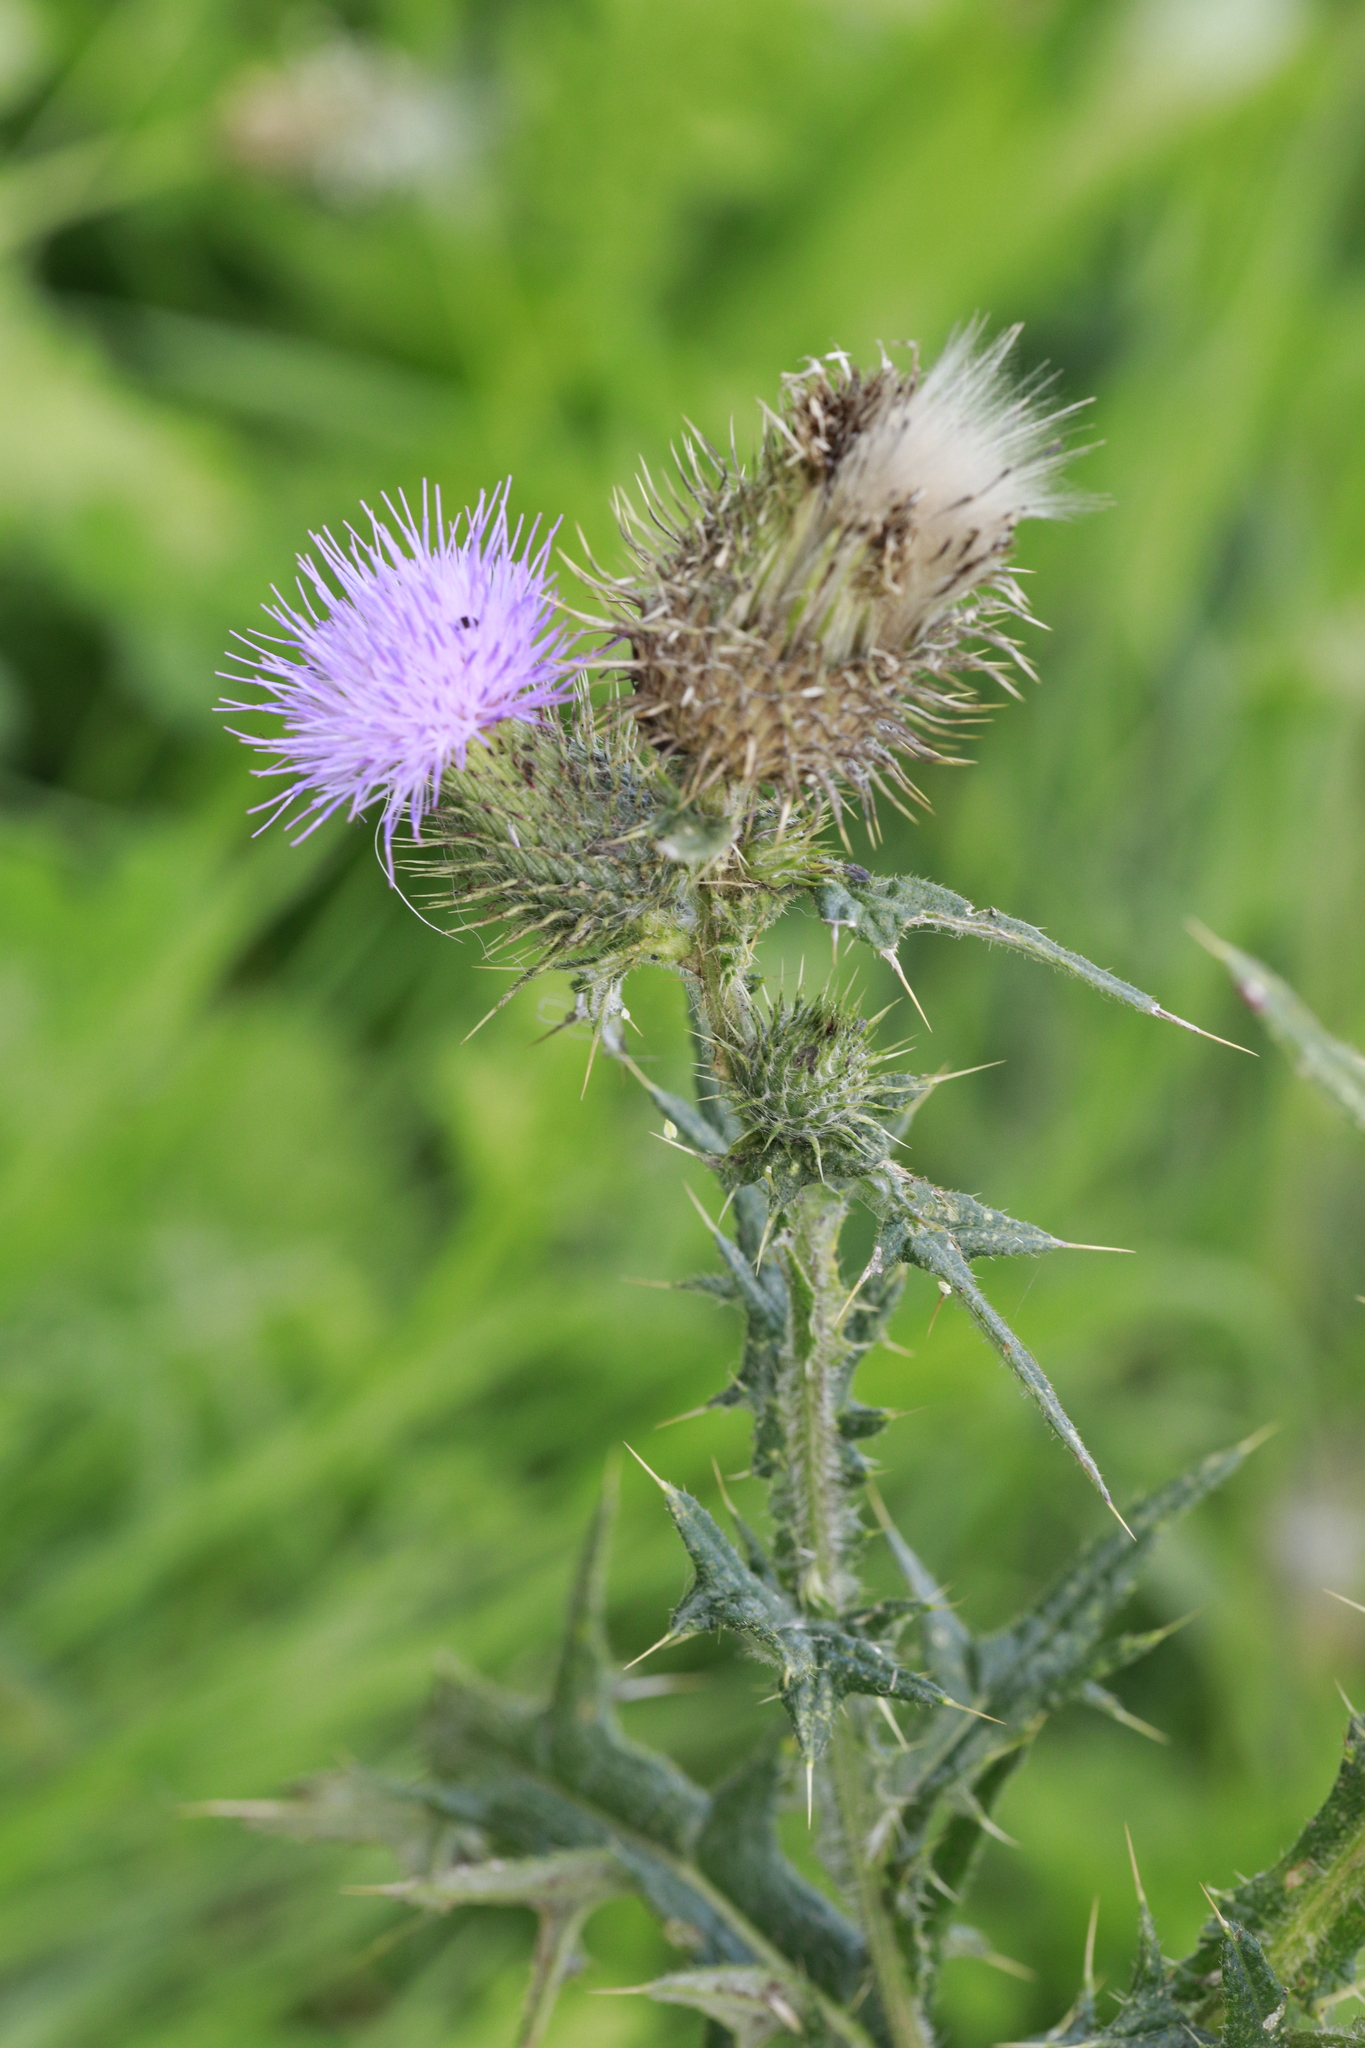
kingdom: Plantae
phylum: Tracheophyta
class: Magnoliopsida
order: Asterales
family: Asteraceae
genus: Cirsium
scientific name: Cirsium vulgare
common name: Bull thistle
